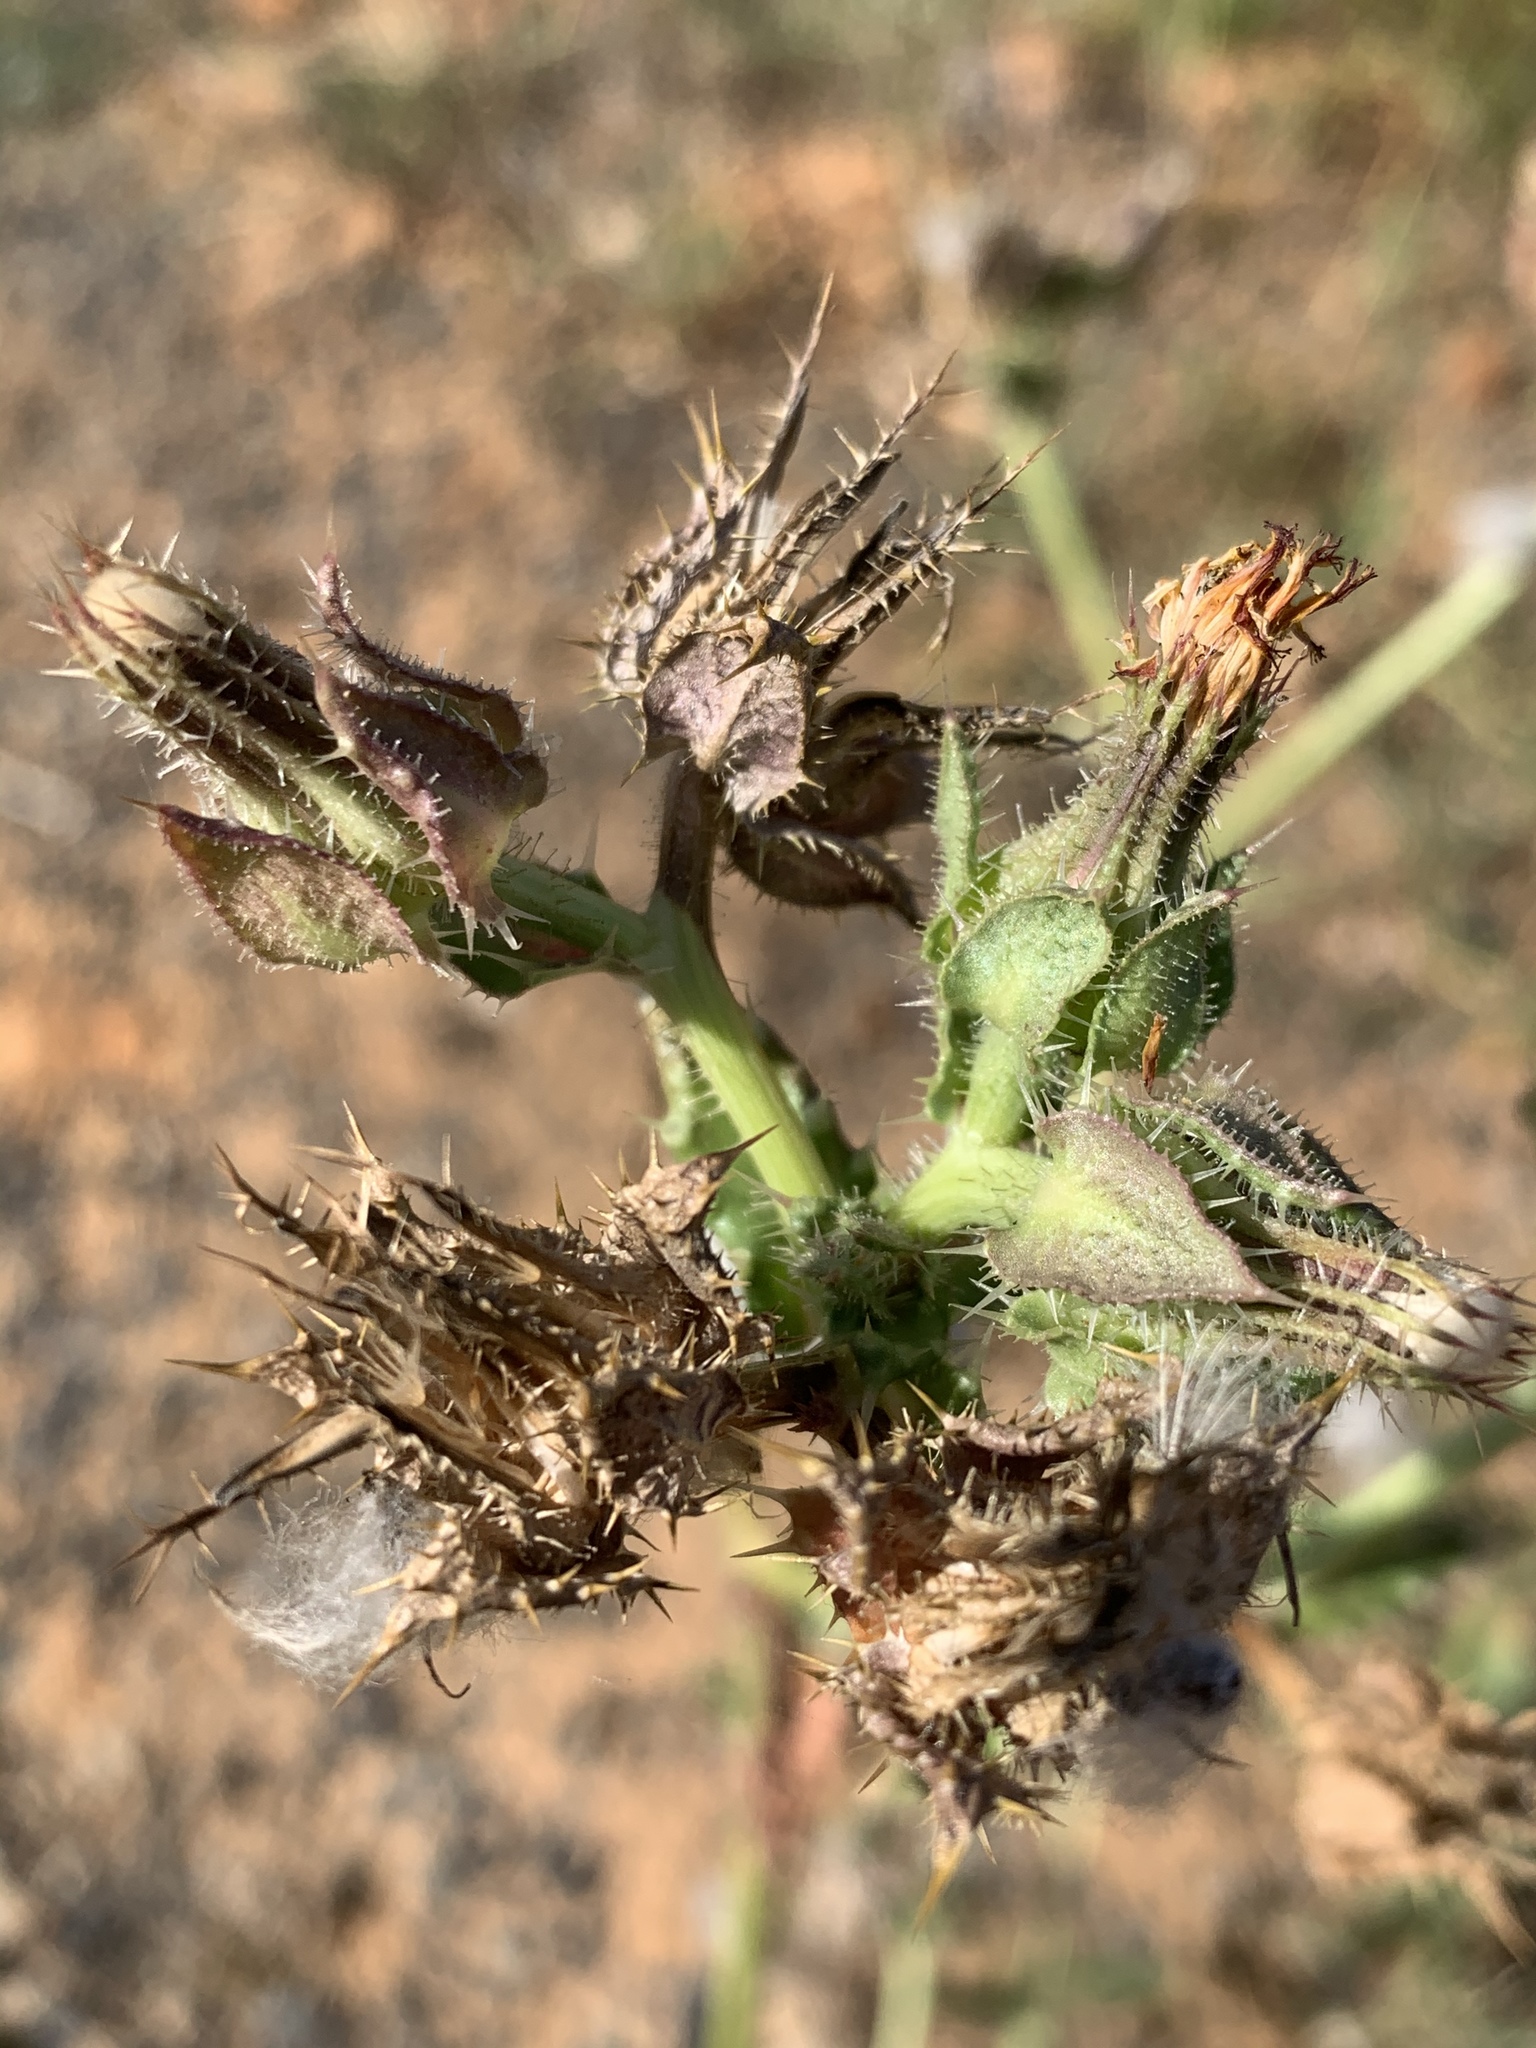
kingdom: Plantae
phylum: Tracheophyta
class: Magnoliopsida
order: Asterales
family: Asteraceae
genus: Helminthotheca
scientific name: Helminthotheca echioides
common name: Ox-tongue
